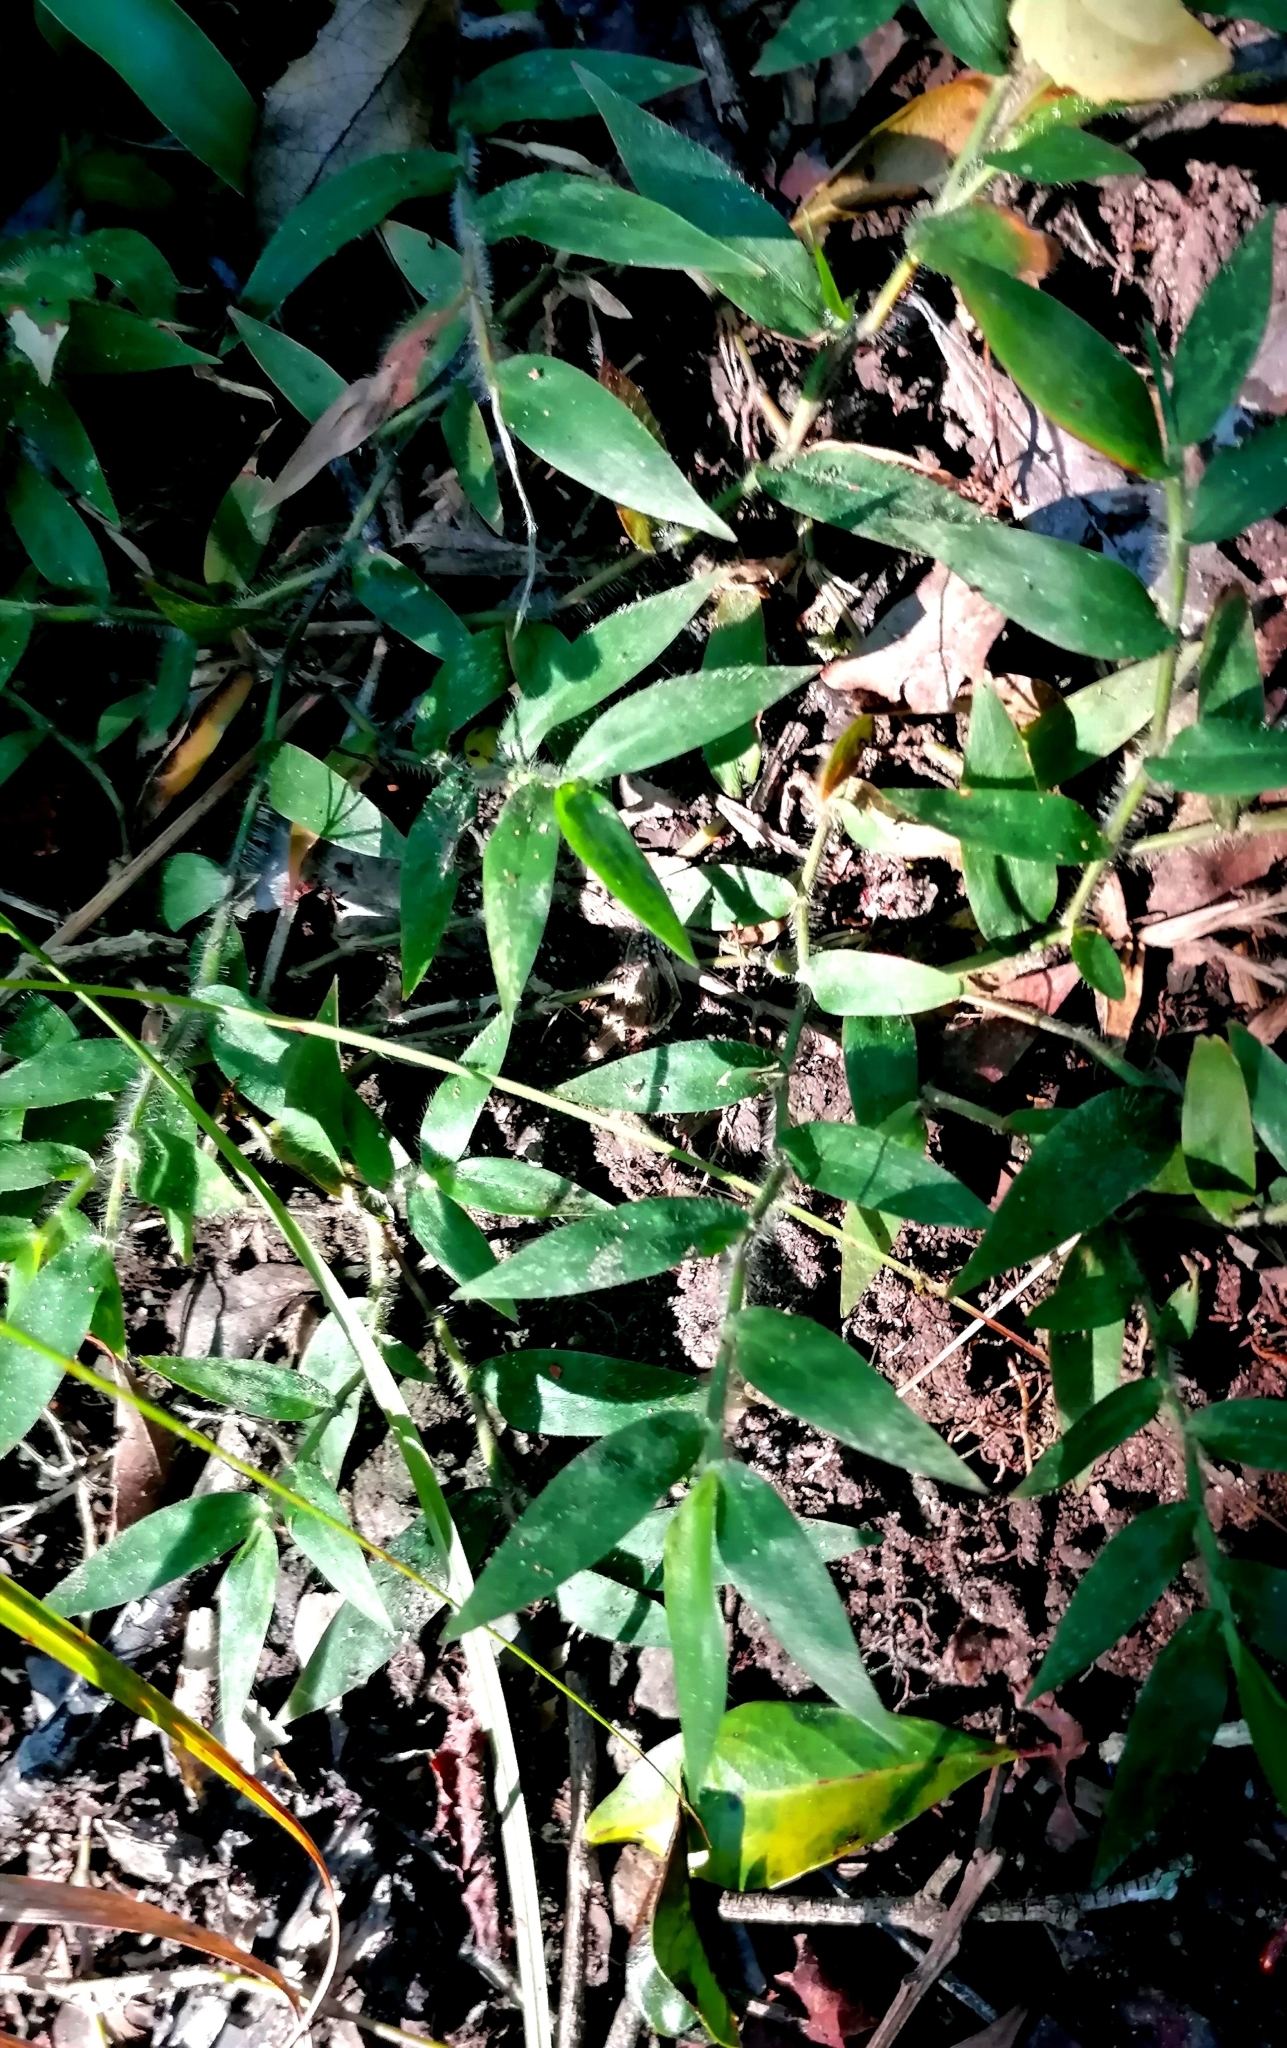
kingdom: Plantae
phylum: Tracheophyta
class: Liliopsida
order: Poales
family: Poaceae
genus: Oplismenus
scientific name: Oplismenus hirtellus
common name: Basketgrass
